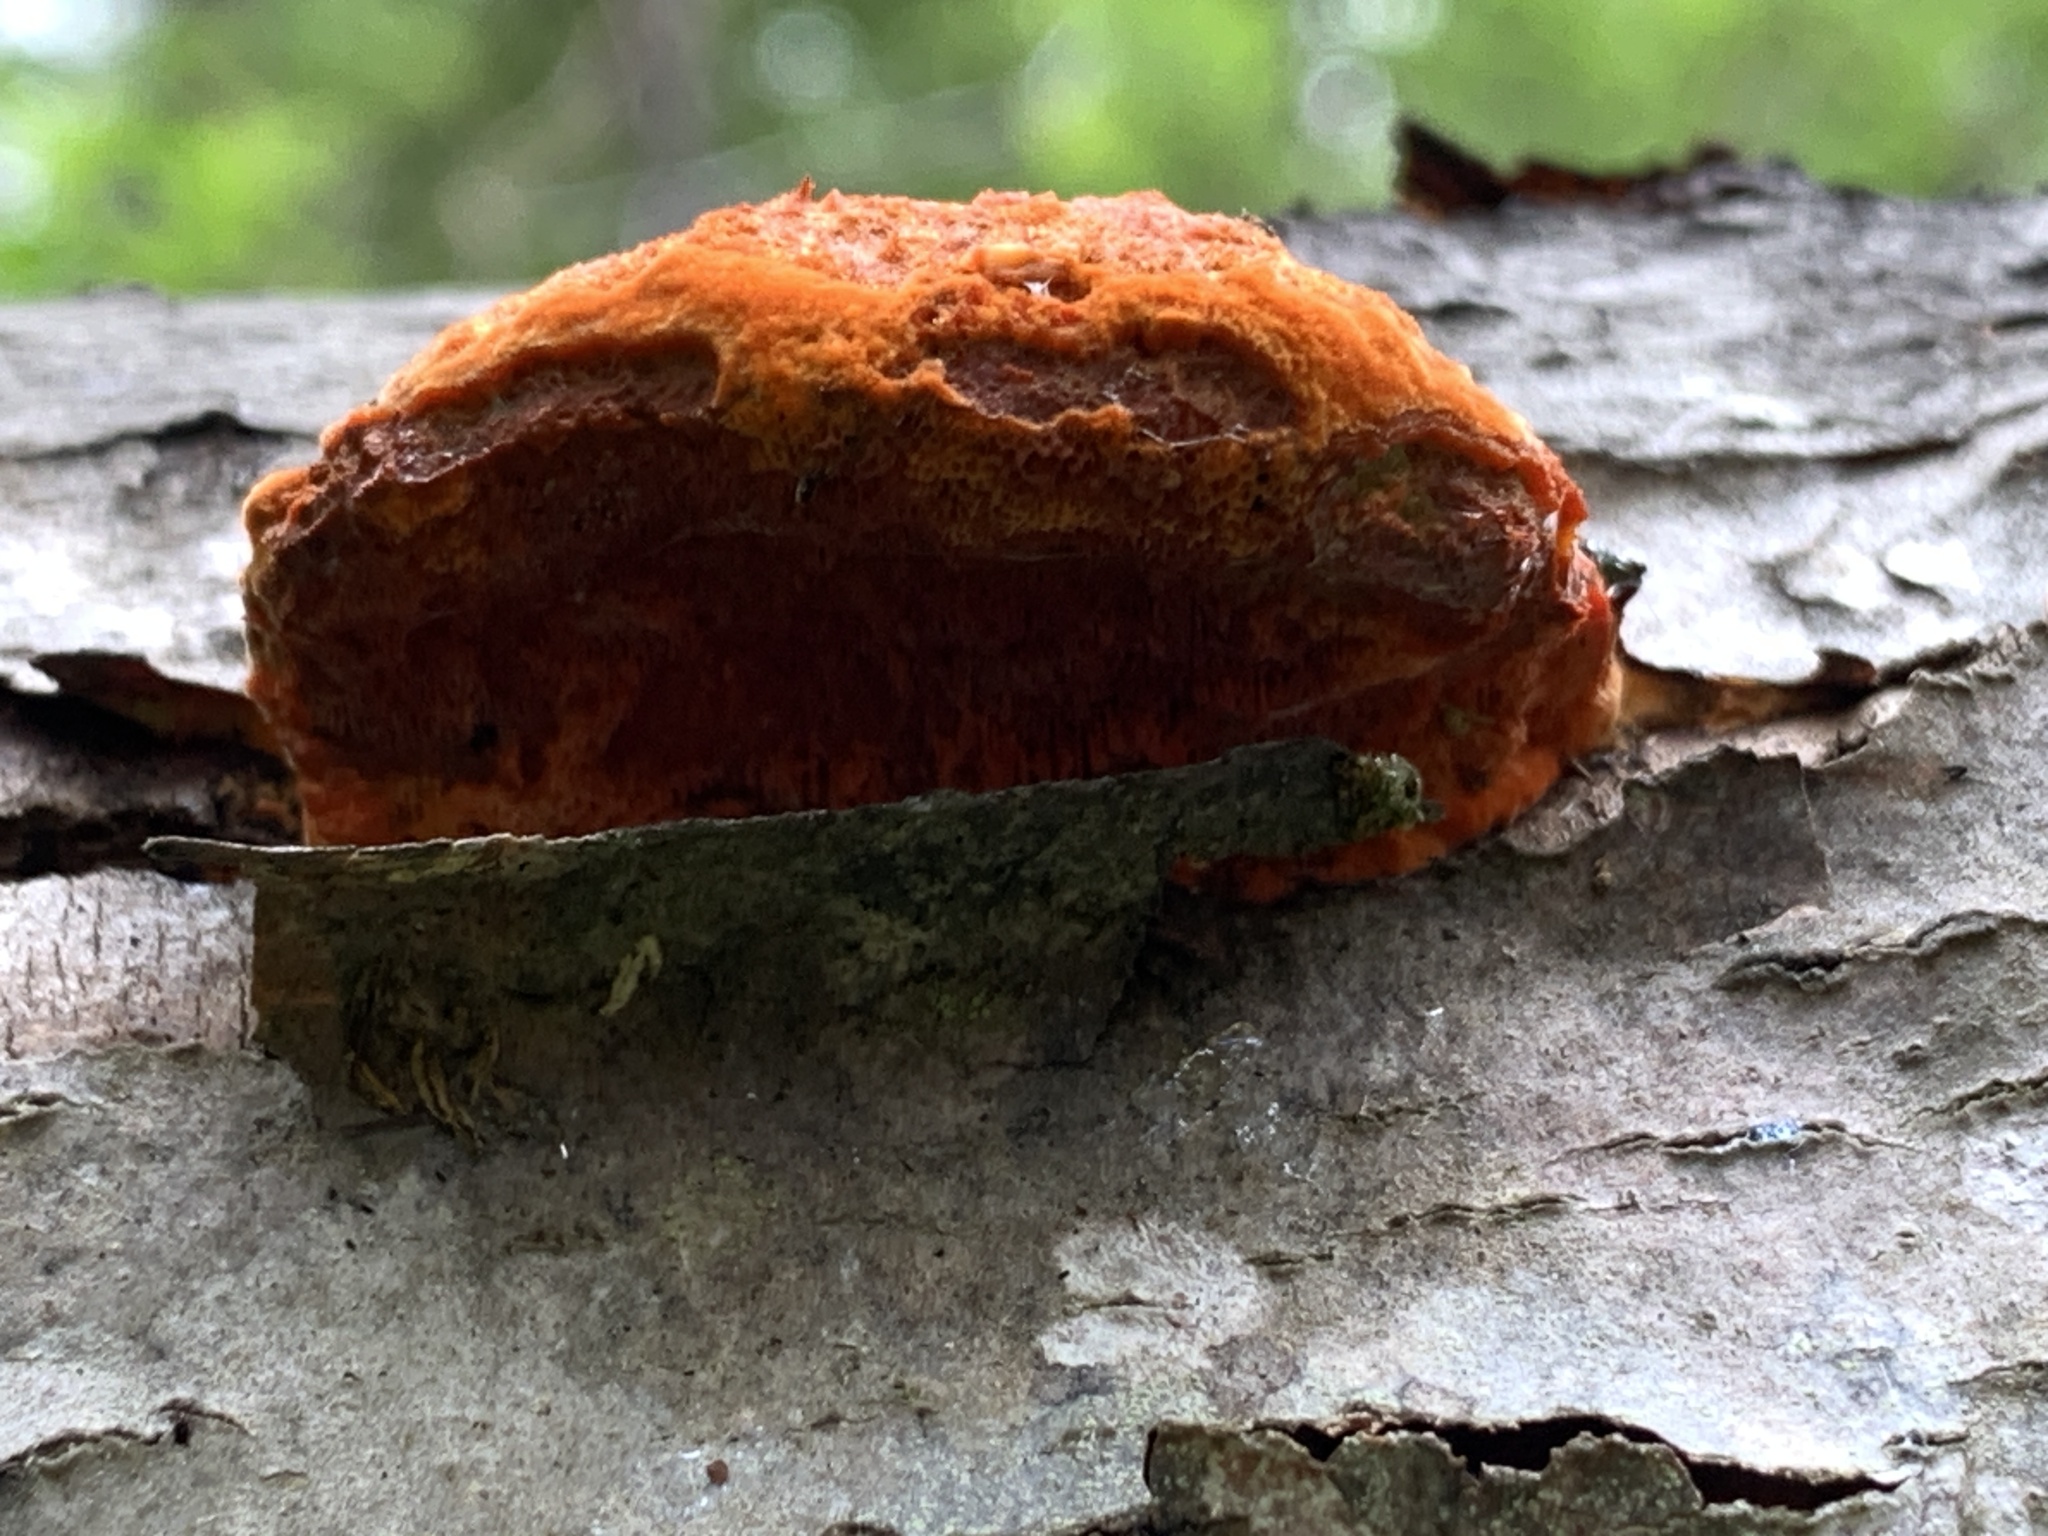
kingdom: Fungi
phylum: Basidiomycota
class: Agaricomycetes
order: Polyporales
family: Polyporaceae
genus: Trametes
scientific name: Trametes cinnabarina
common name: Northern cinnabar polypore
